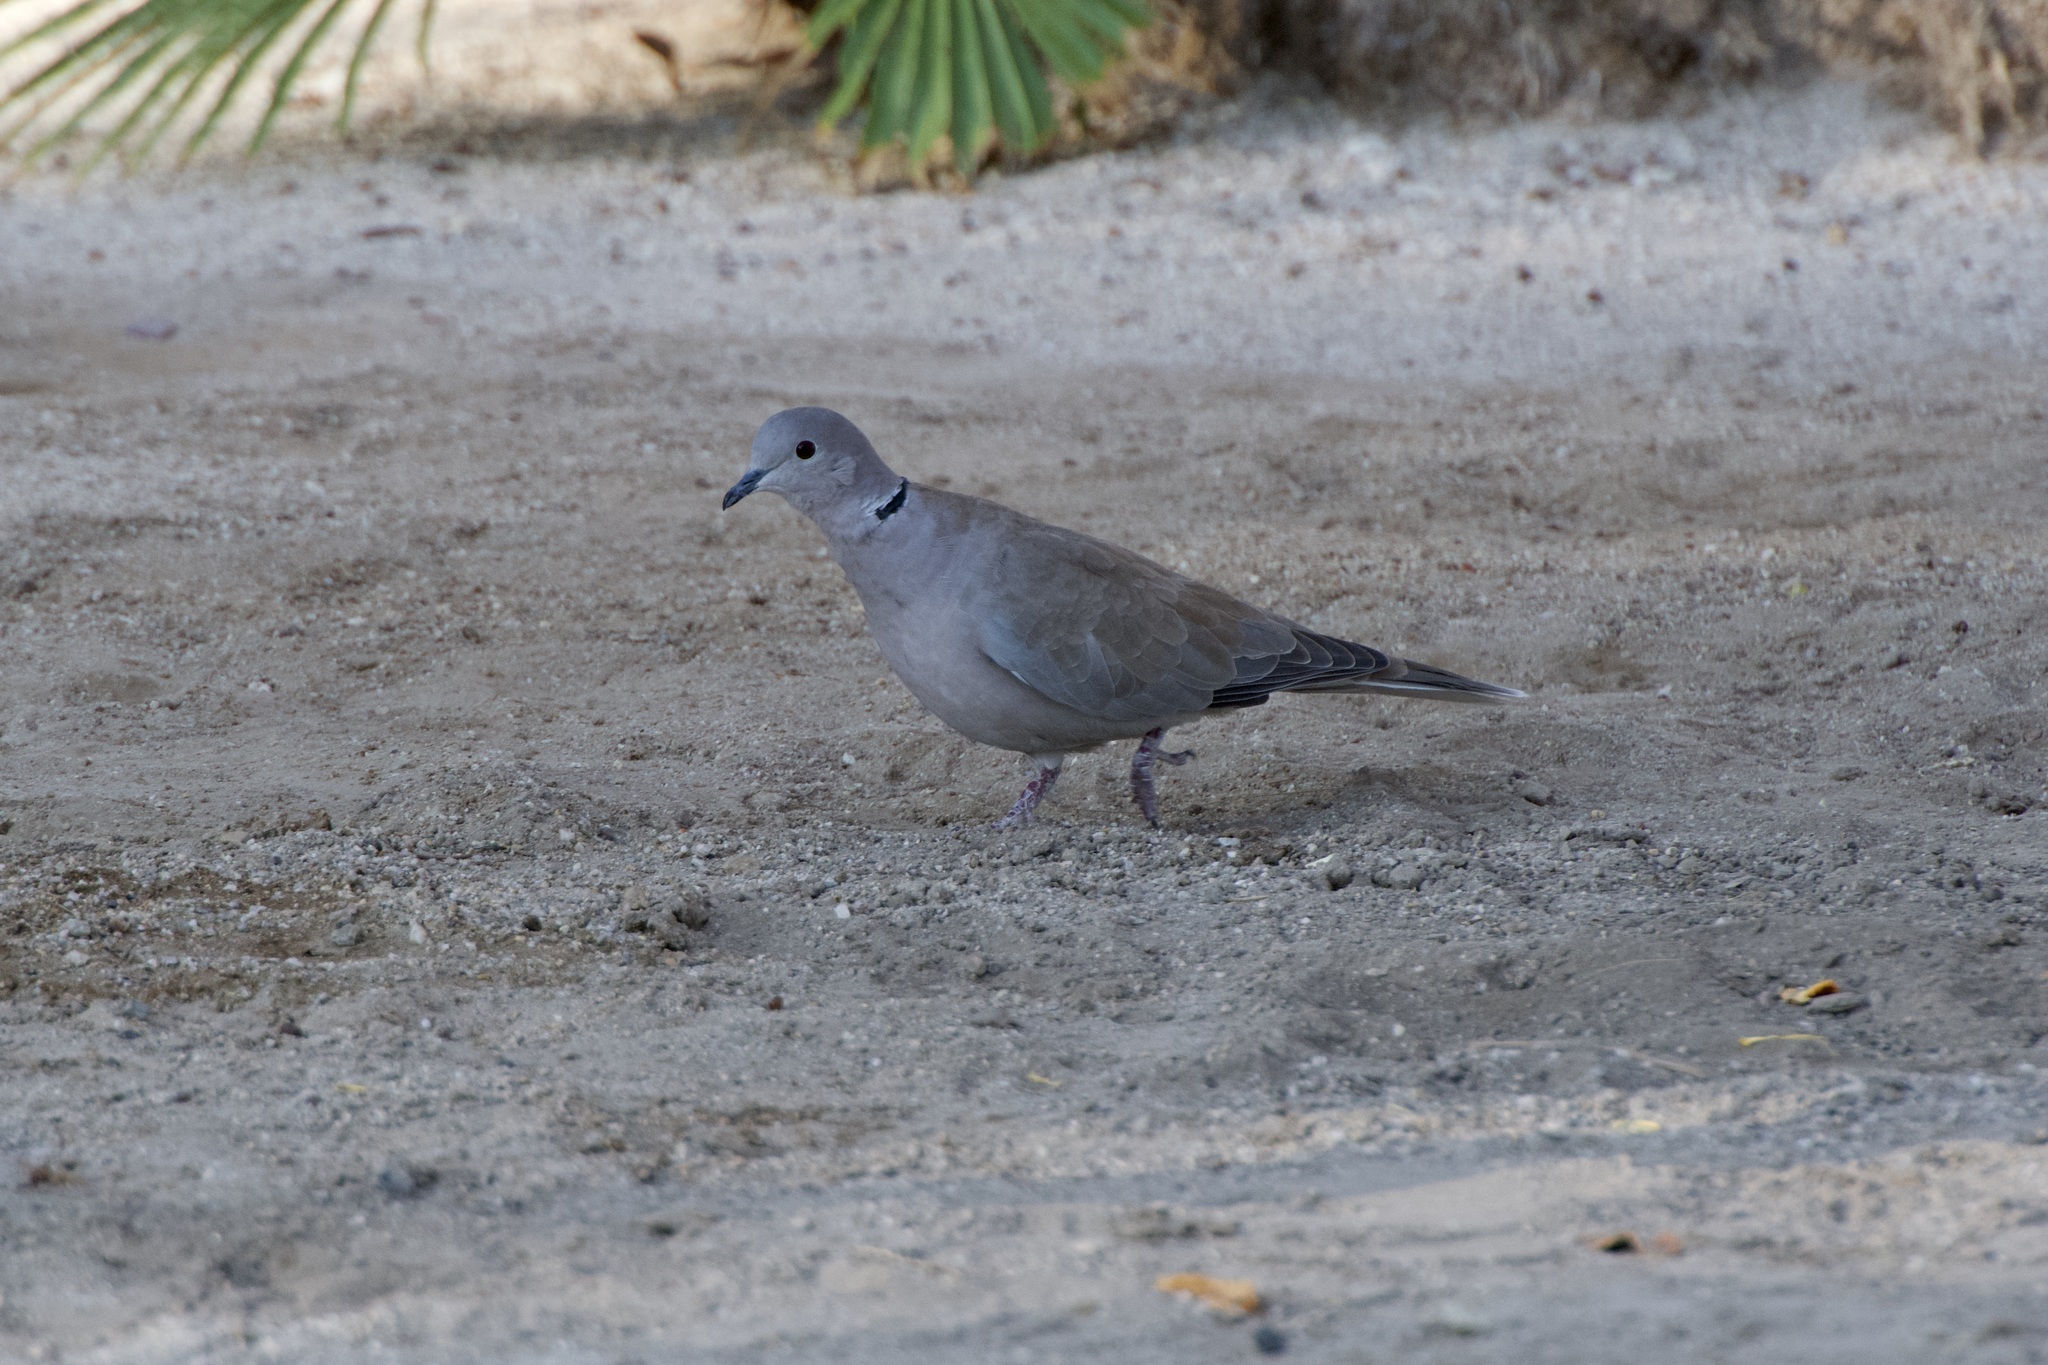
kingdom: Animalia
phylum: Chordata
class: Aves
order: Columbiformes
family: Columbidae
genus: Streptopelia
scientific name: Streptopelia decaocto
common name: Eurasian collared dove
